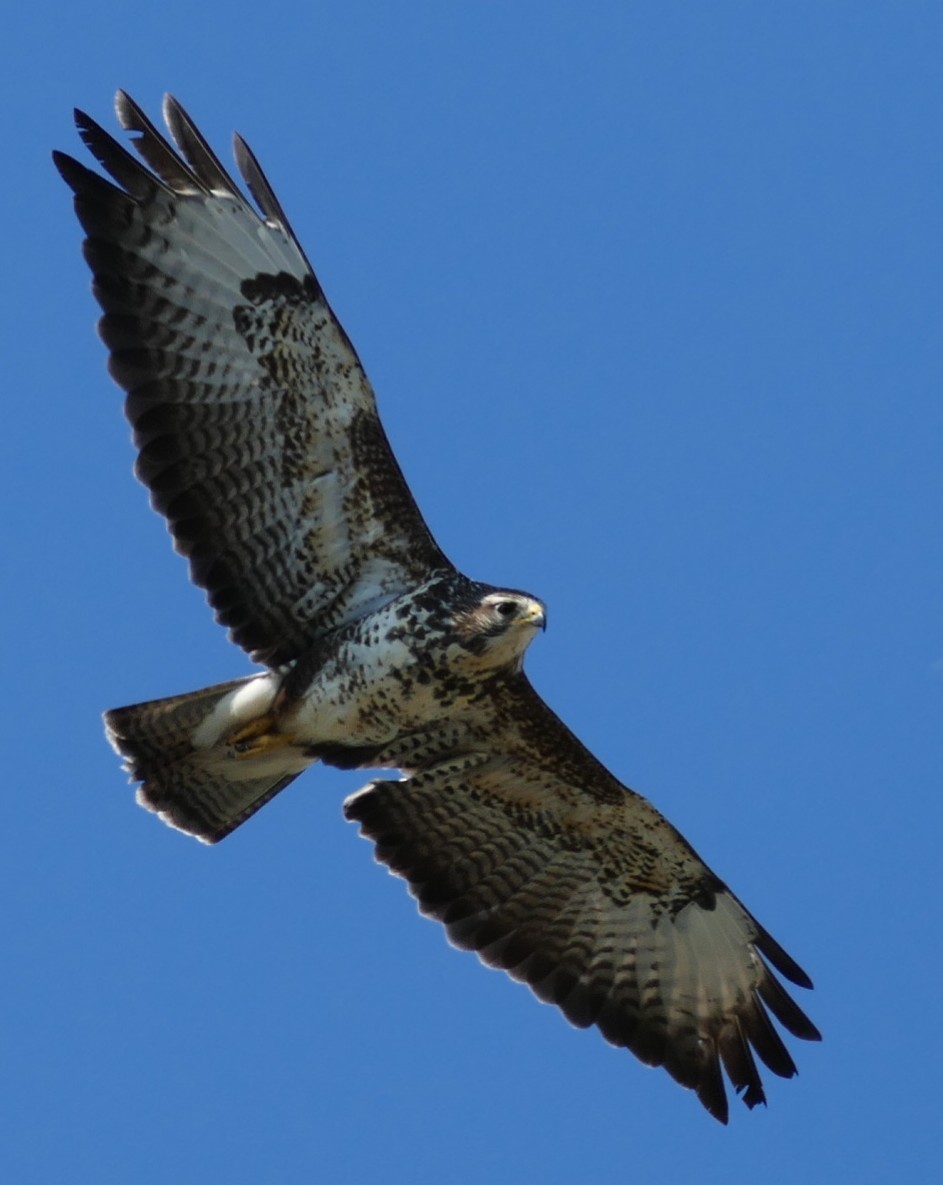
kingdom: Animalia
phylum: Chordata
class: Aves
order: Accipitriformes
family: Accipitridae
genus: Buteo
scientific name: Buteo buteo
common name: Common buzzard
